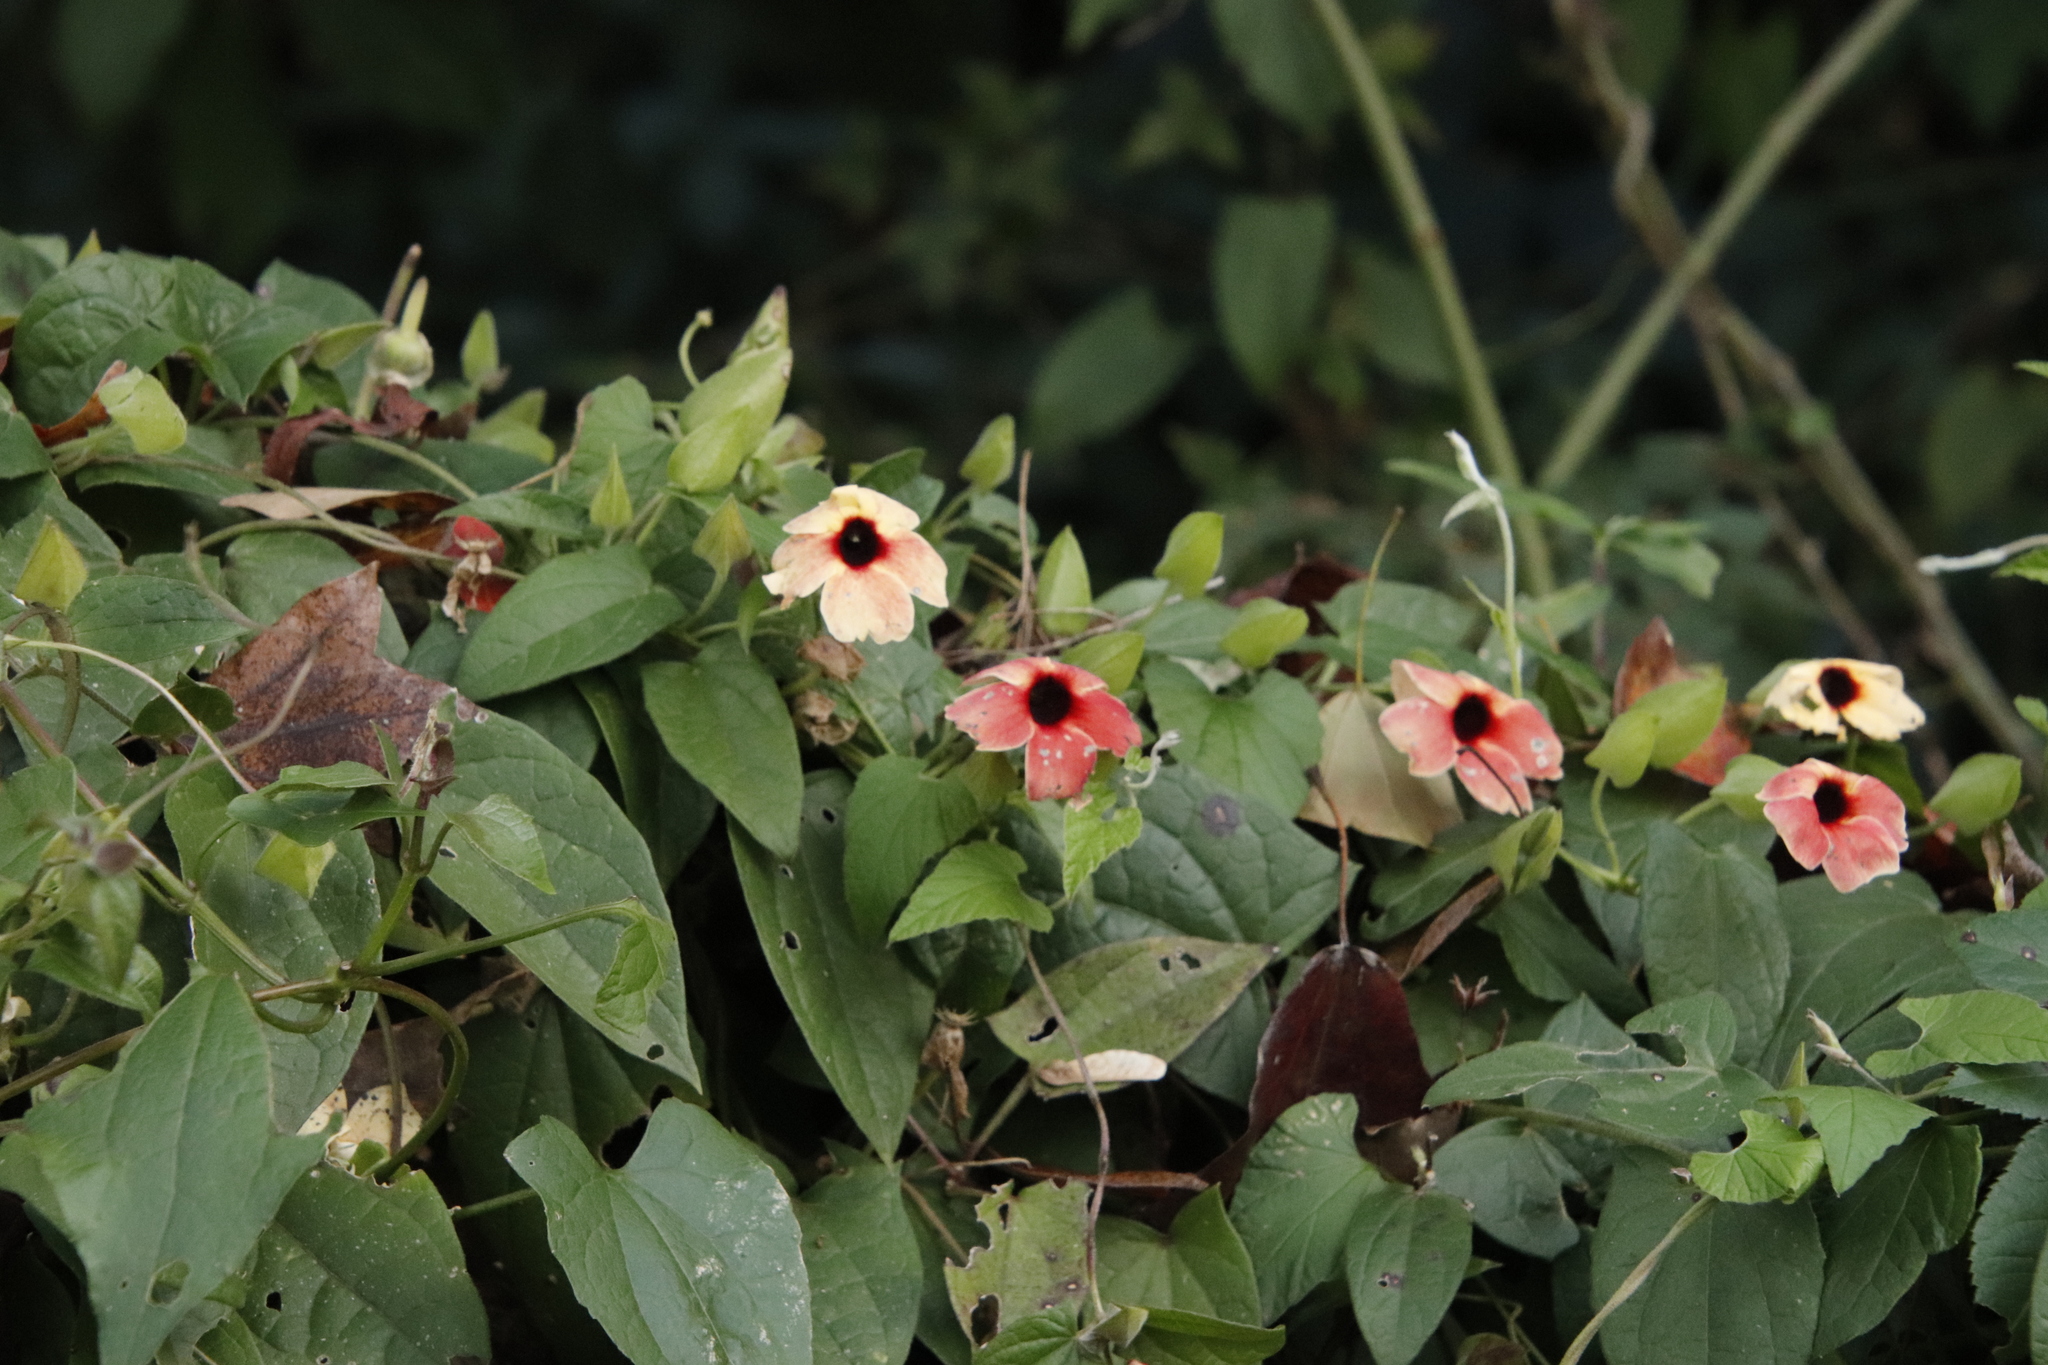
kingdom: Plantae
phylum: Tracheophyta
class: Magnoliopsida
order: Lamiales
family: Acanthaceae
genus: Thunbergia
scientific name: Thunbergia alata
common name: Blackeyed susan vine
